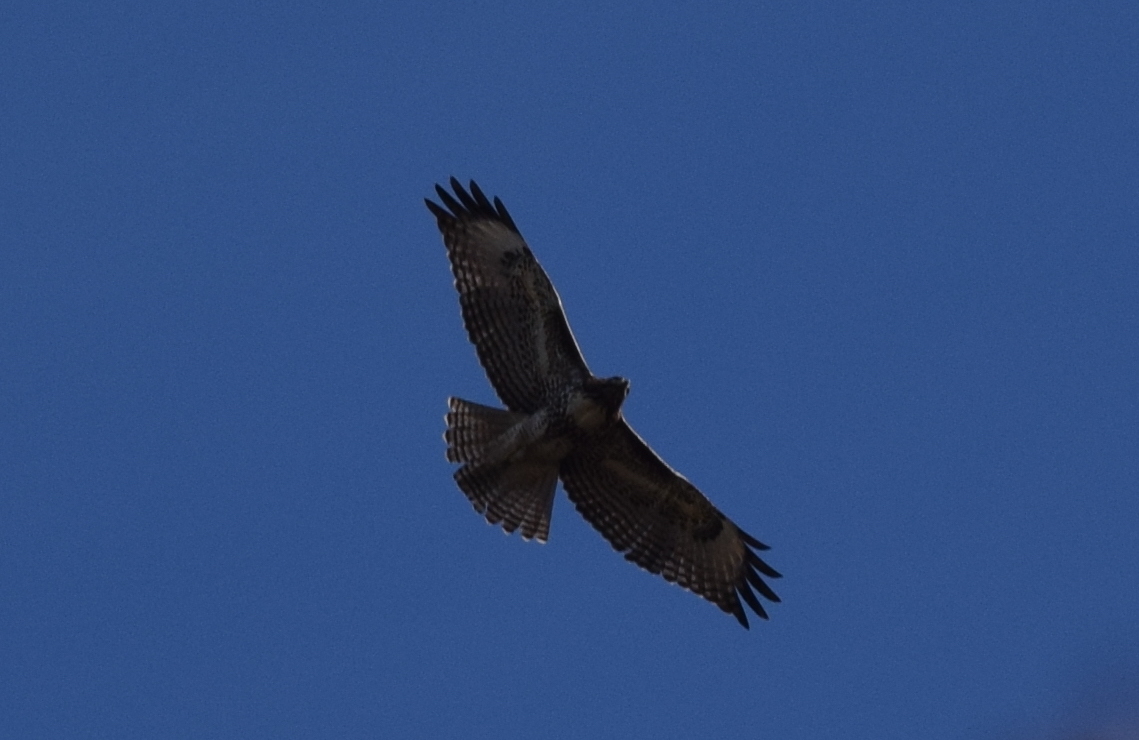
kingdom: Animalia
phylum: Chordata
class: Aves
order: Accipitriformes
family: Accipitridae
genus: Buteo
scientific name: Buteo jamaicensis
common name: Red-tailed hawk
